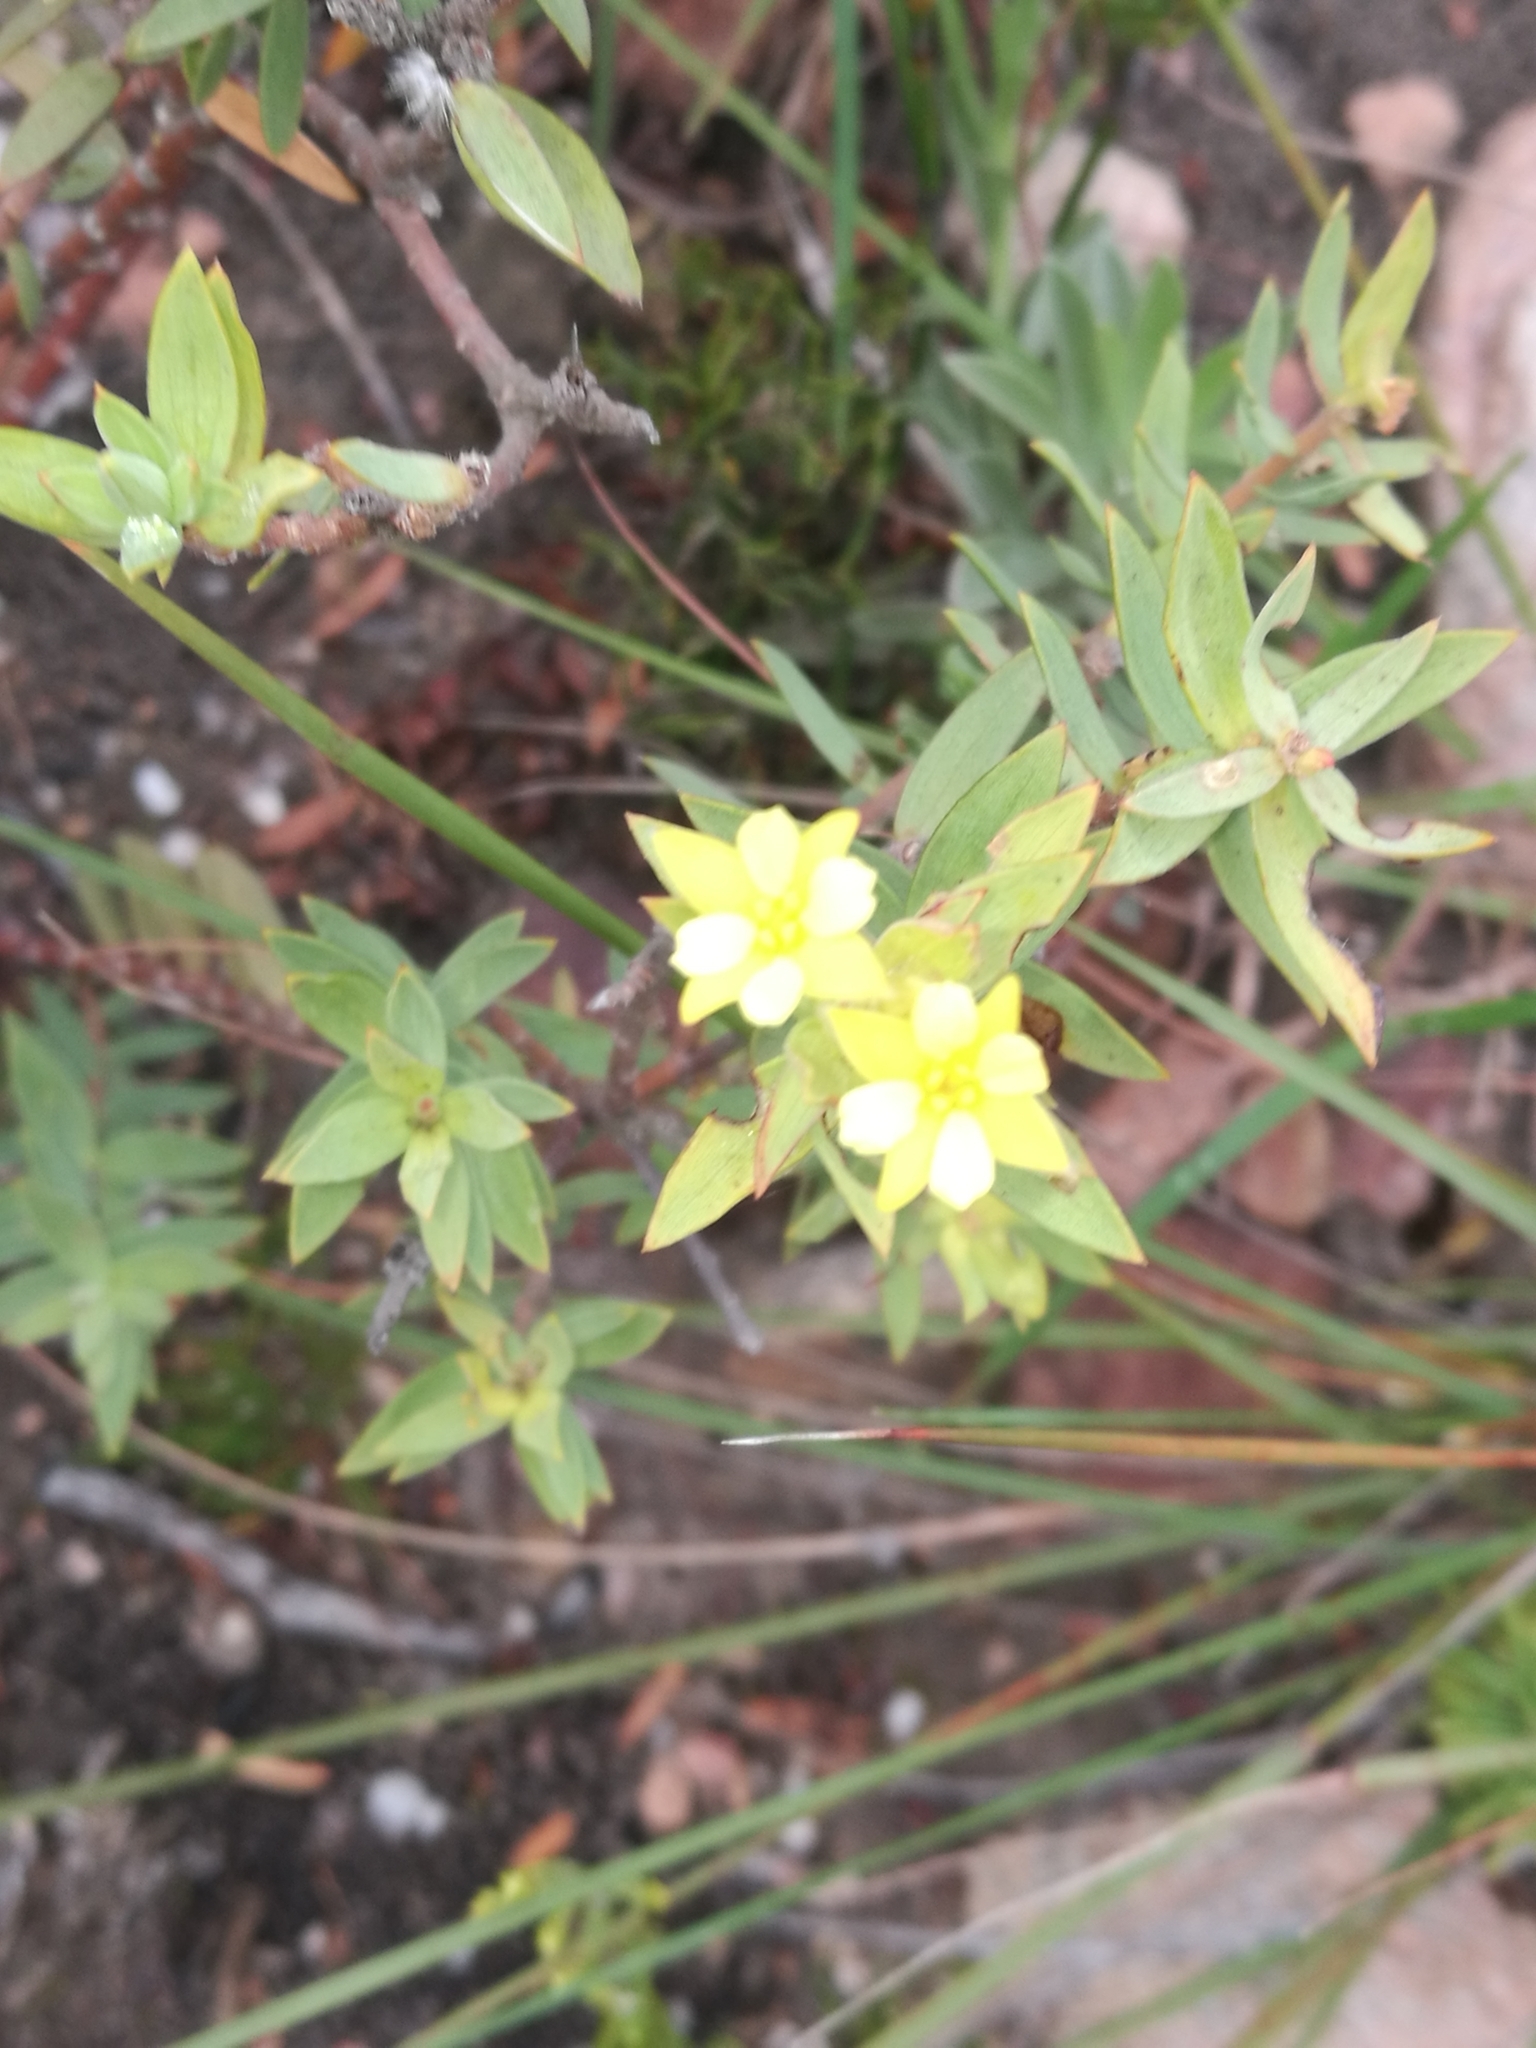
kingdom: Plantae
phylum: Tracheophyta
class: Magnoliopsida
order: Malvales
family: Thymelaeaceae
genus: Gnidia
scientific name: Gnidia styphelioides
